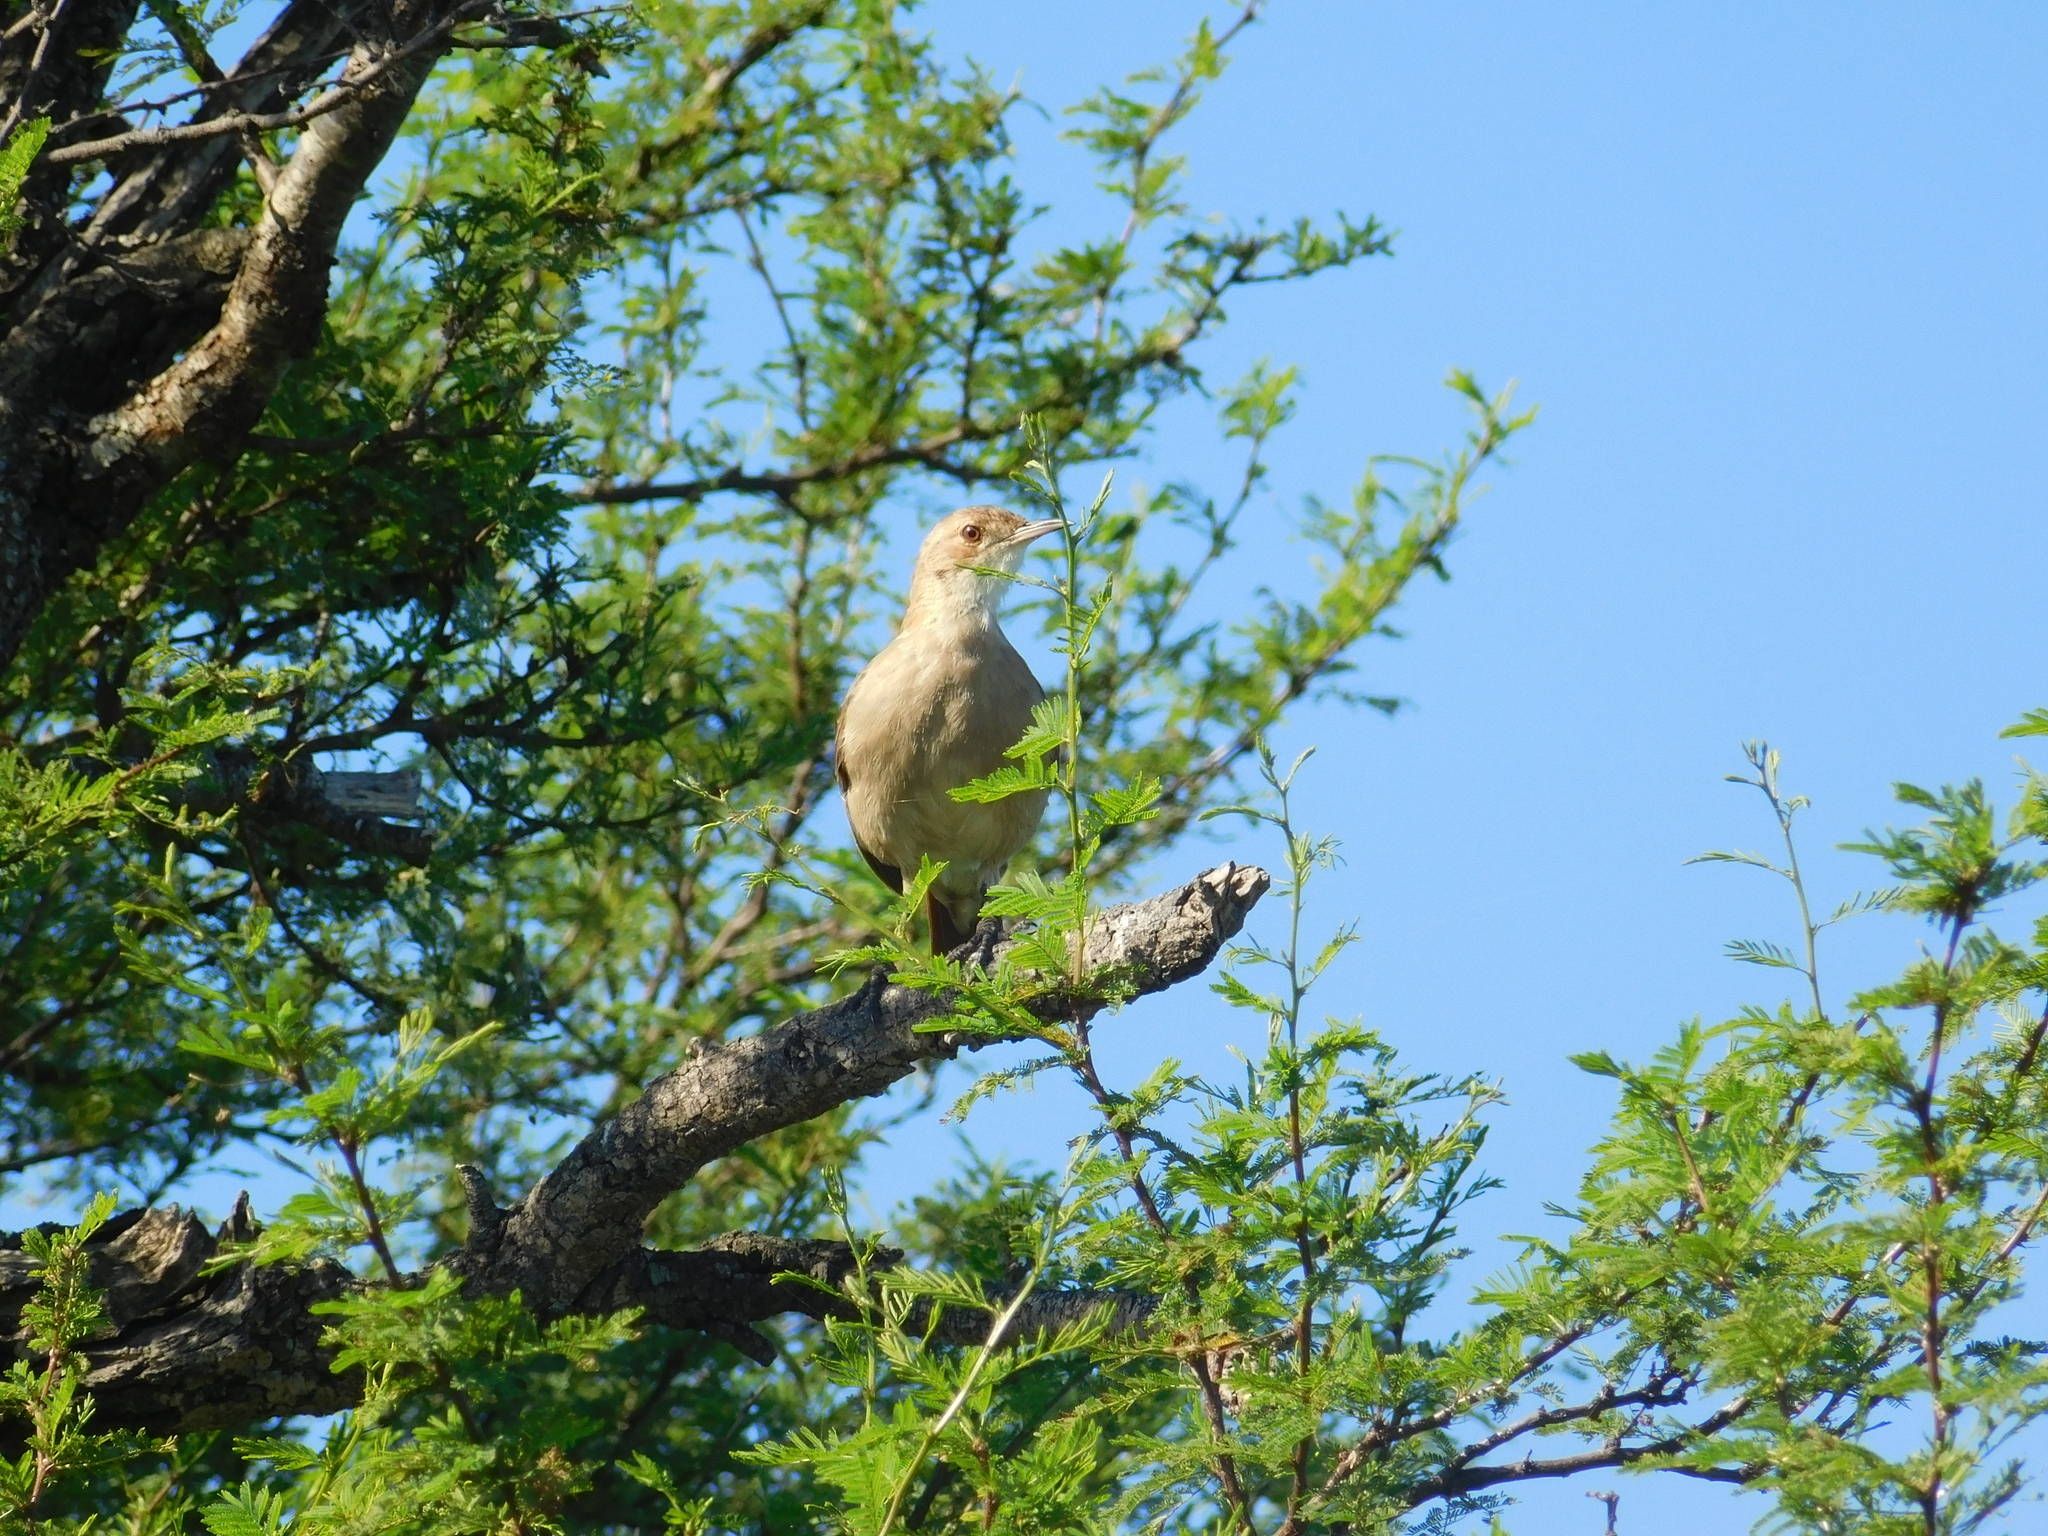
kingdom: Animalia
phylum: Chordata
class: Aves
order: Passeriformes
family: Furnariidae
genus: Furnarius
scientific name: Furnarius rufus
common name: Rufous hornero
